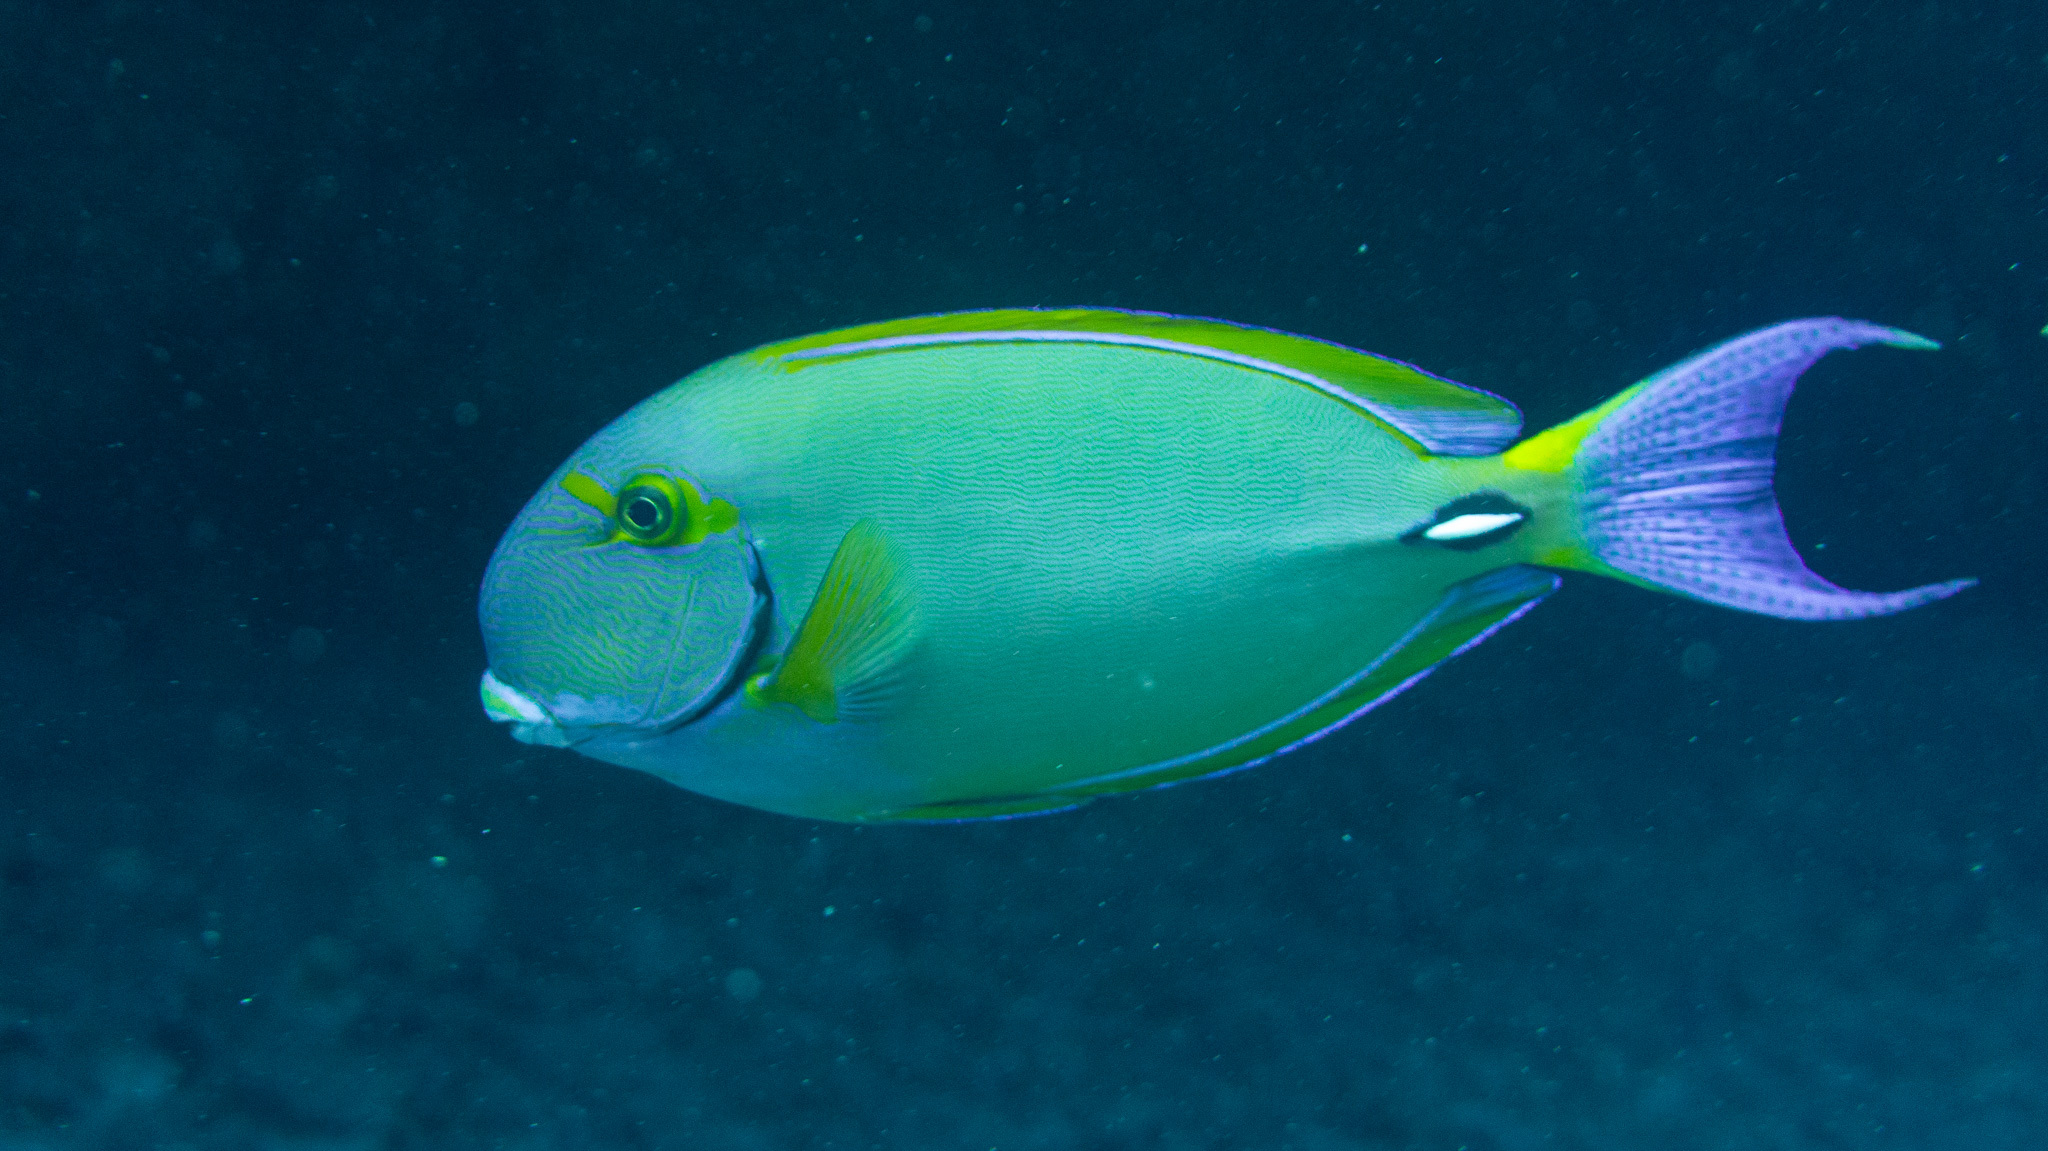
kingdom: Animalia
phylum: Chordata
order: Perciformes
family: Acanthuridae
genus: Acanthurus
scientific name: Acanthurus dussumieri
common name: Dussumier's surgeonfish
